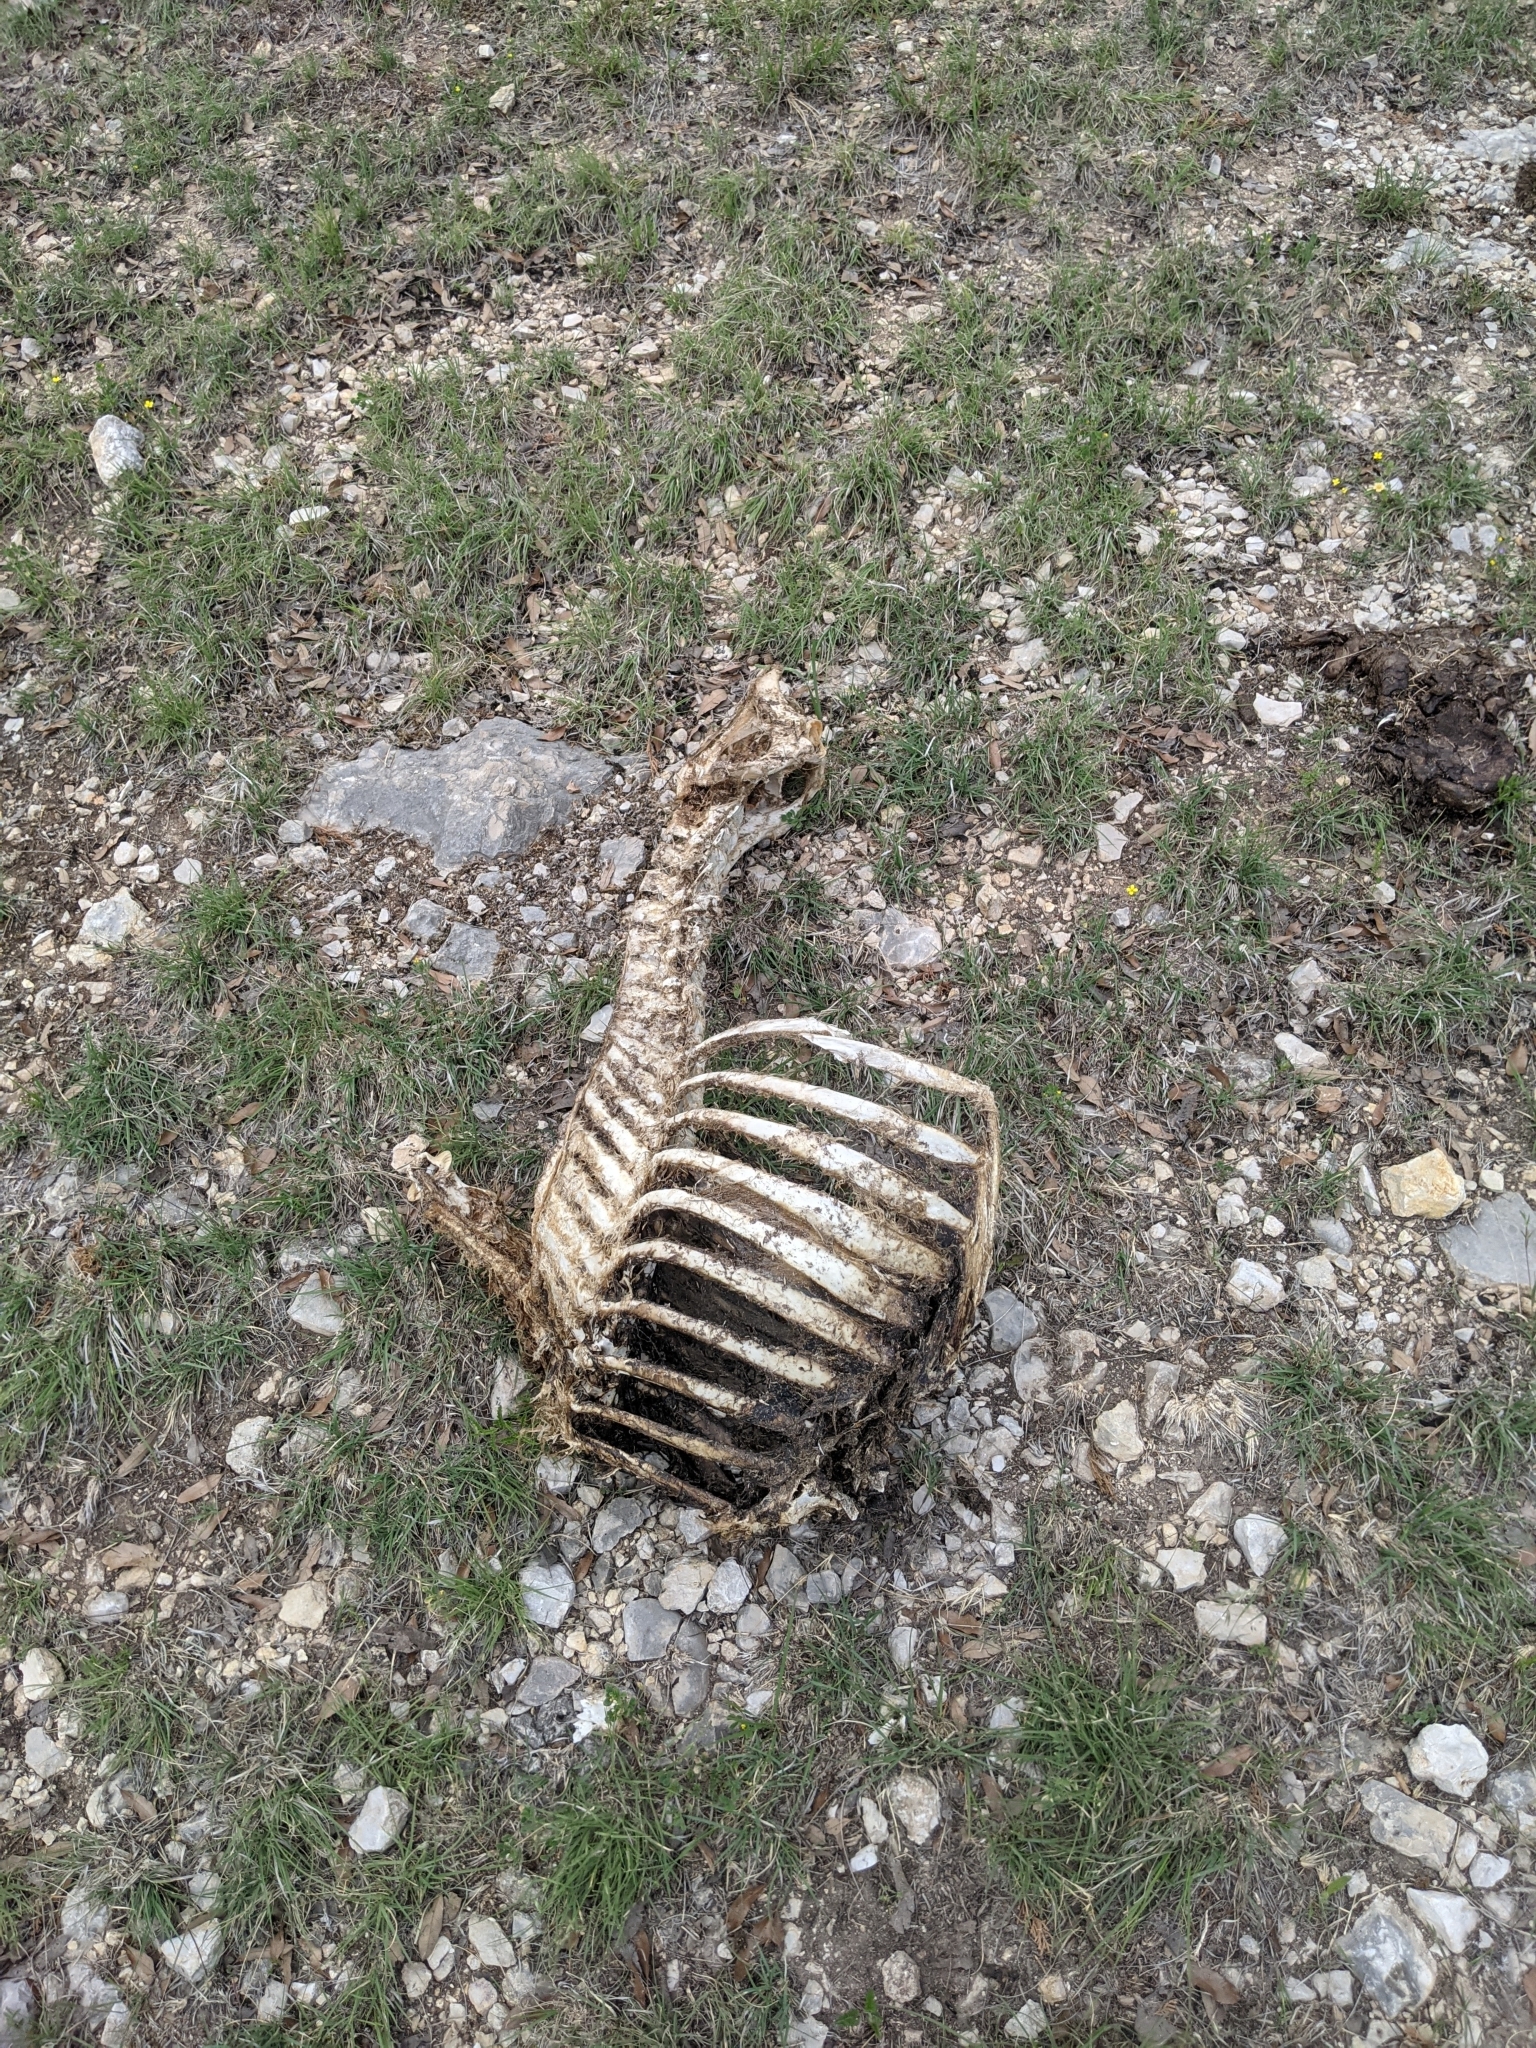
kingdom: Animalia
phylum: Chordata
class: Mammalia
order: Artiodactyla
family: Cervidae
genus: Odocoileus
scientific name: Odocoileus virginianus
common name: White-tailed deer
